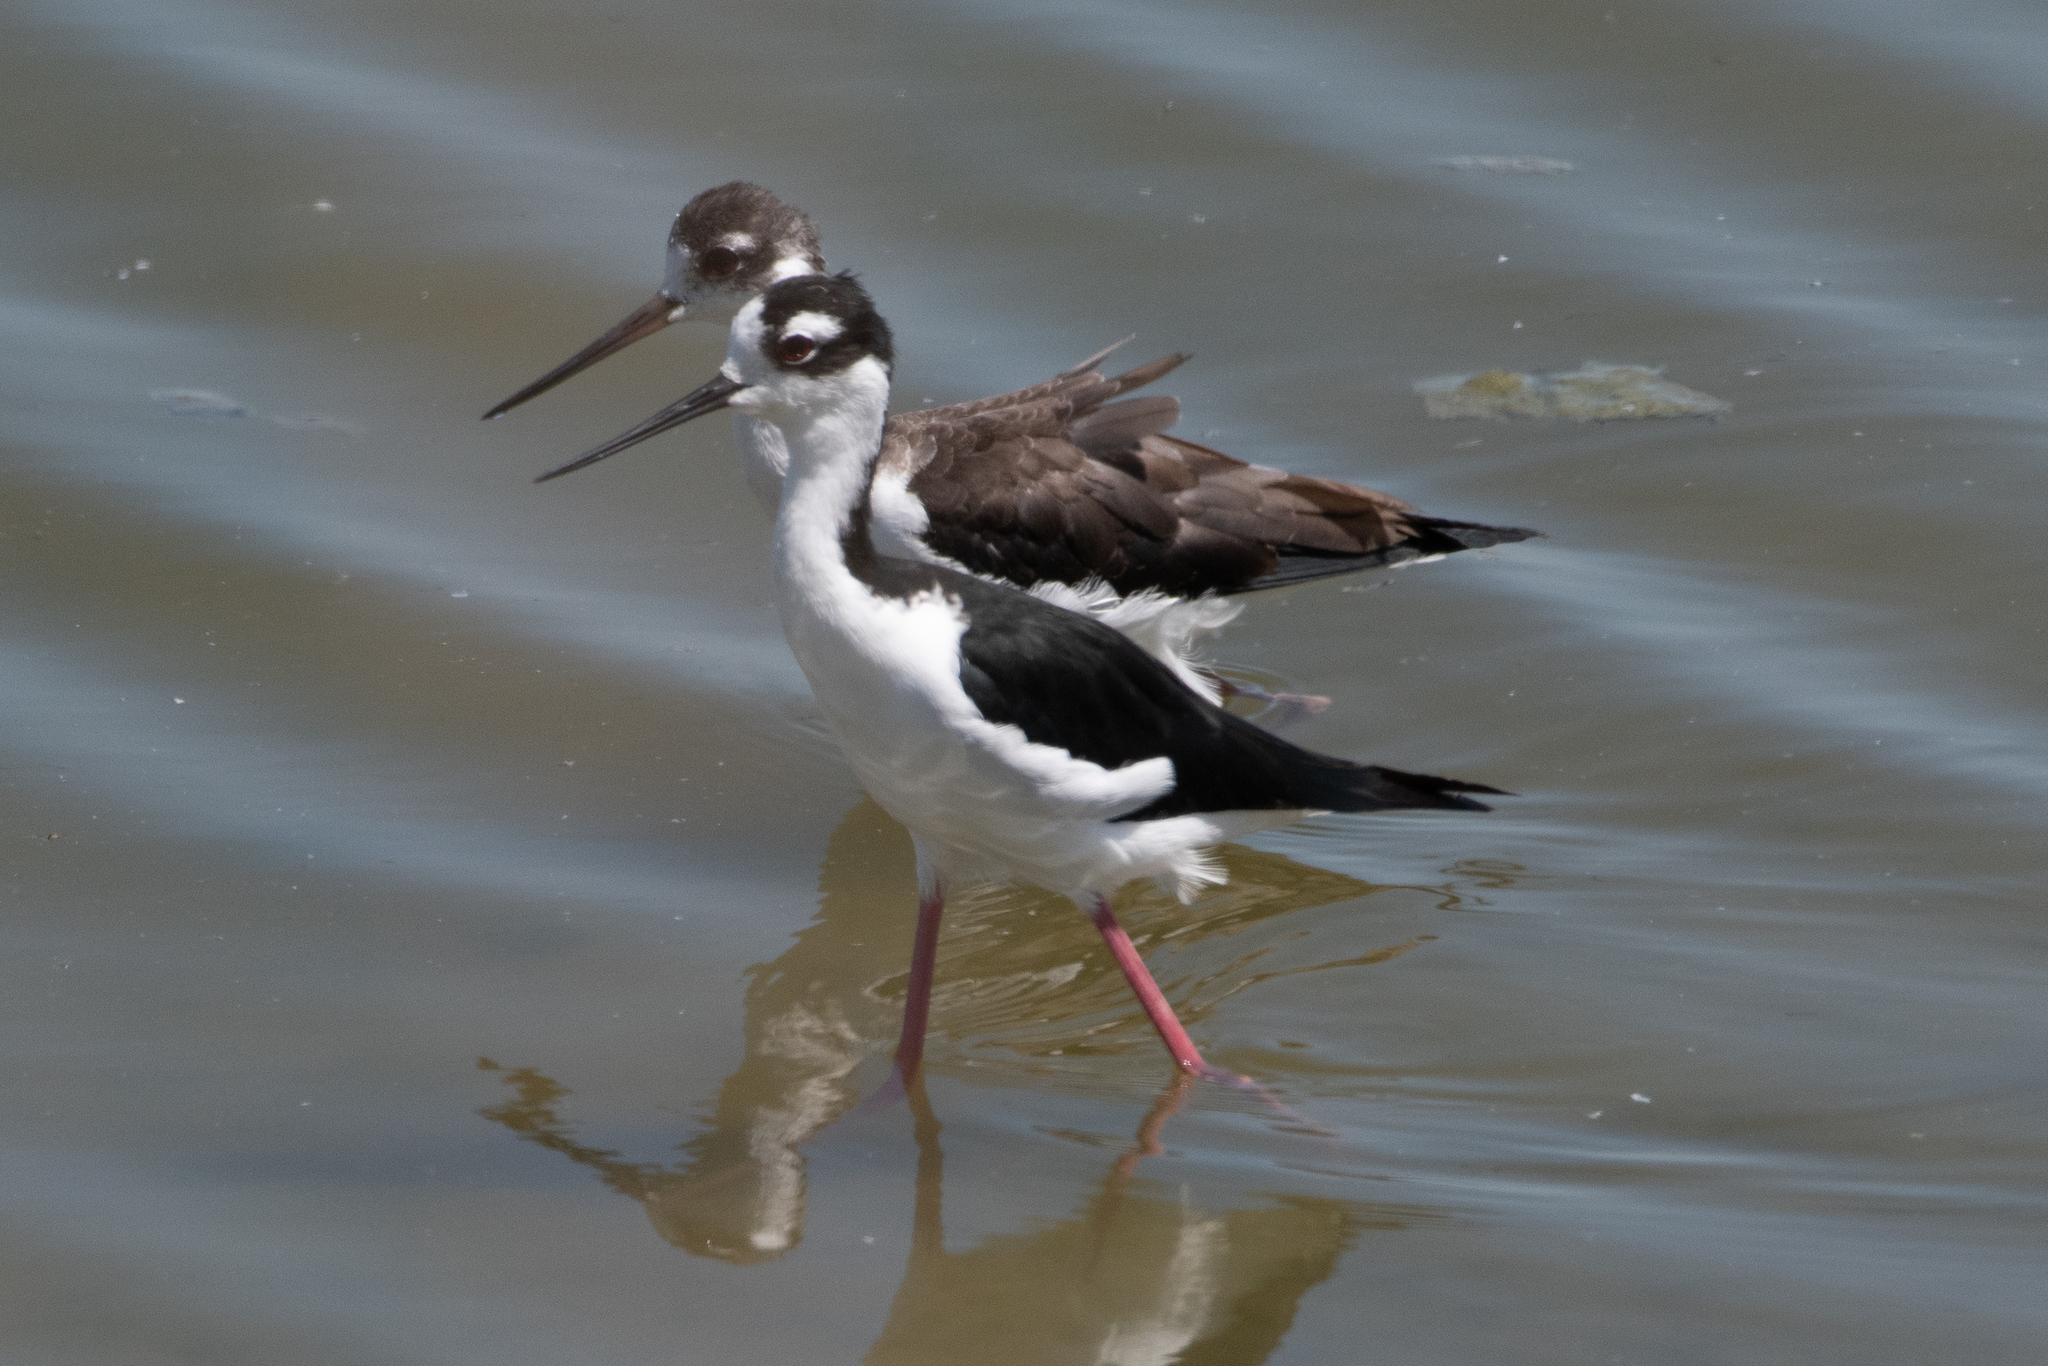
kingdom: Animalia
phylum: Chordata
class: Aves
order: Charadriiformes
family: Recurvirostridae
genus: Himantopus
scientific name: Himantopus mexicanus
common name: Black-necked stilt
